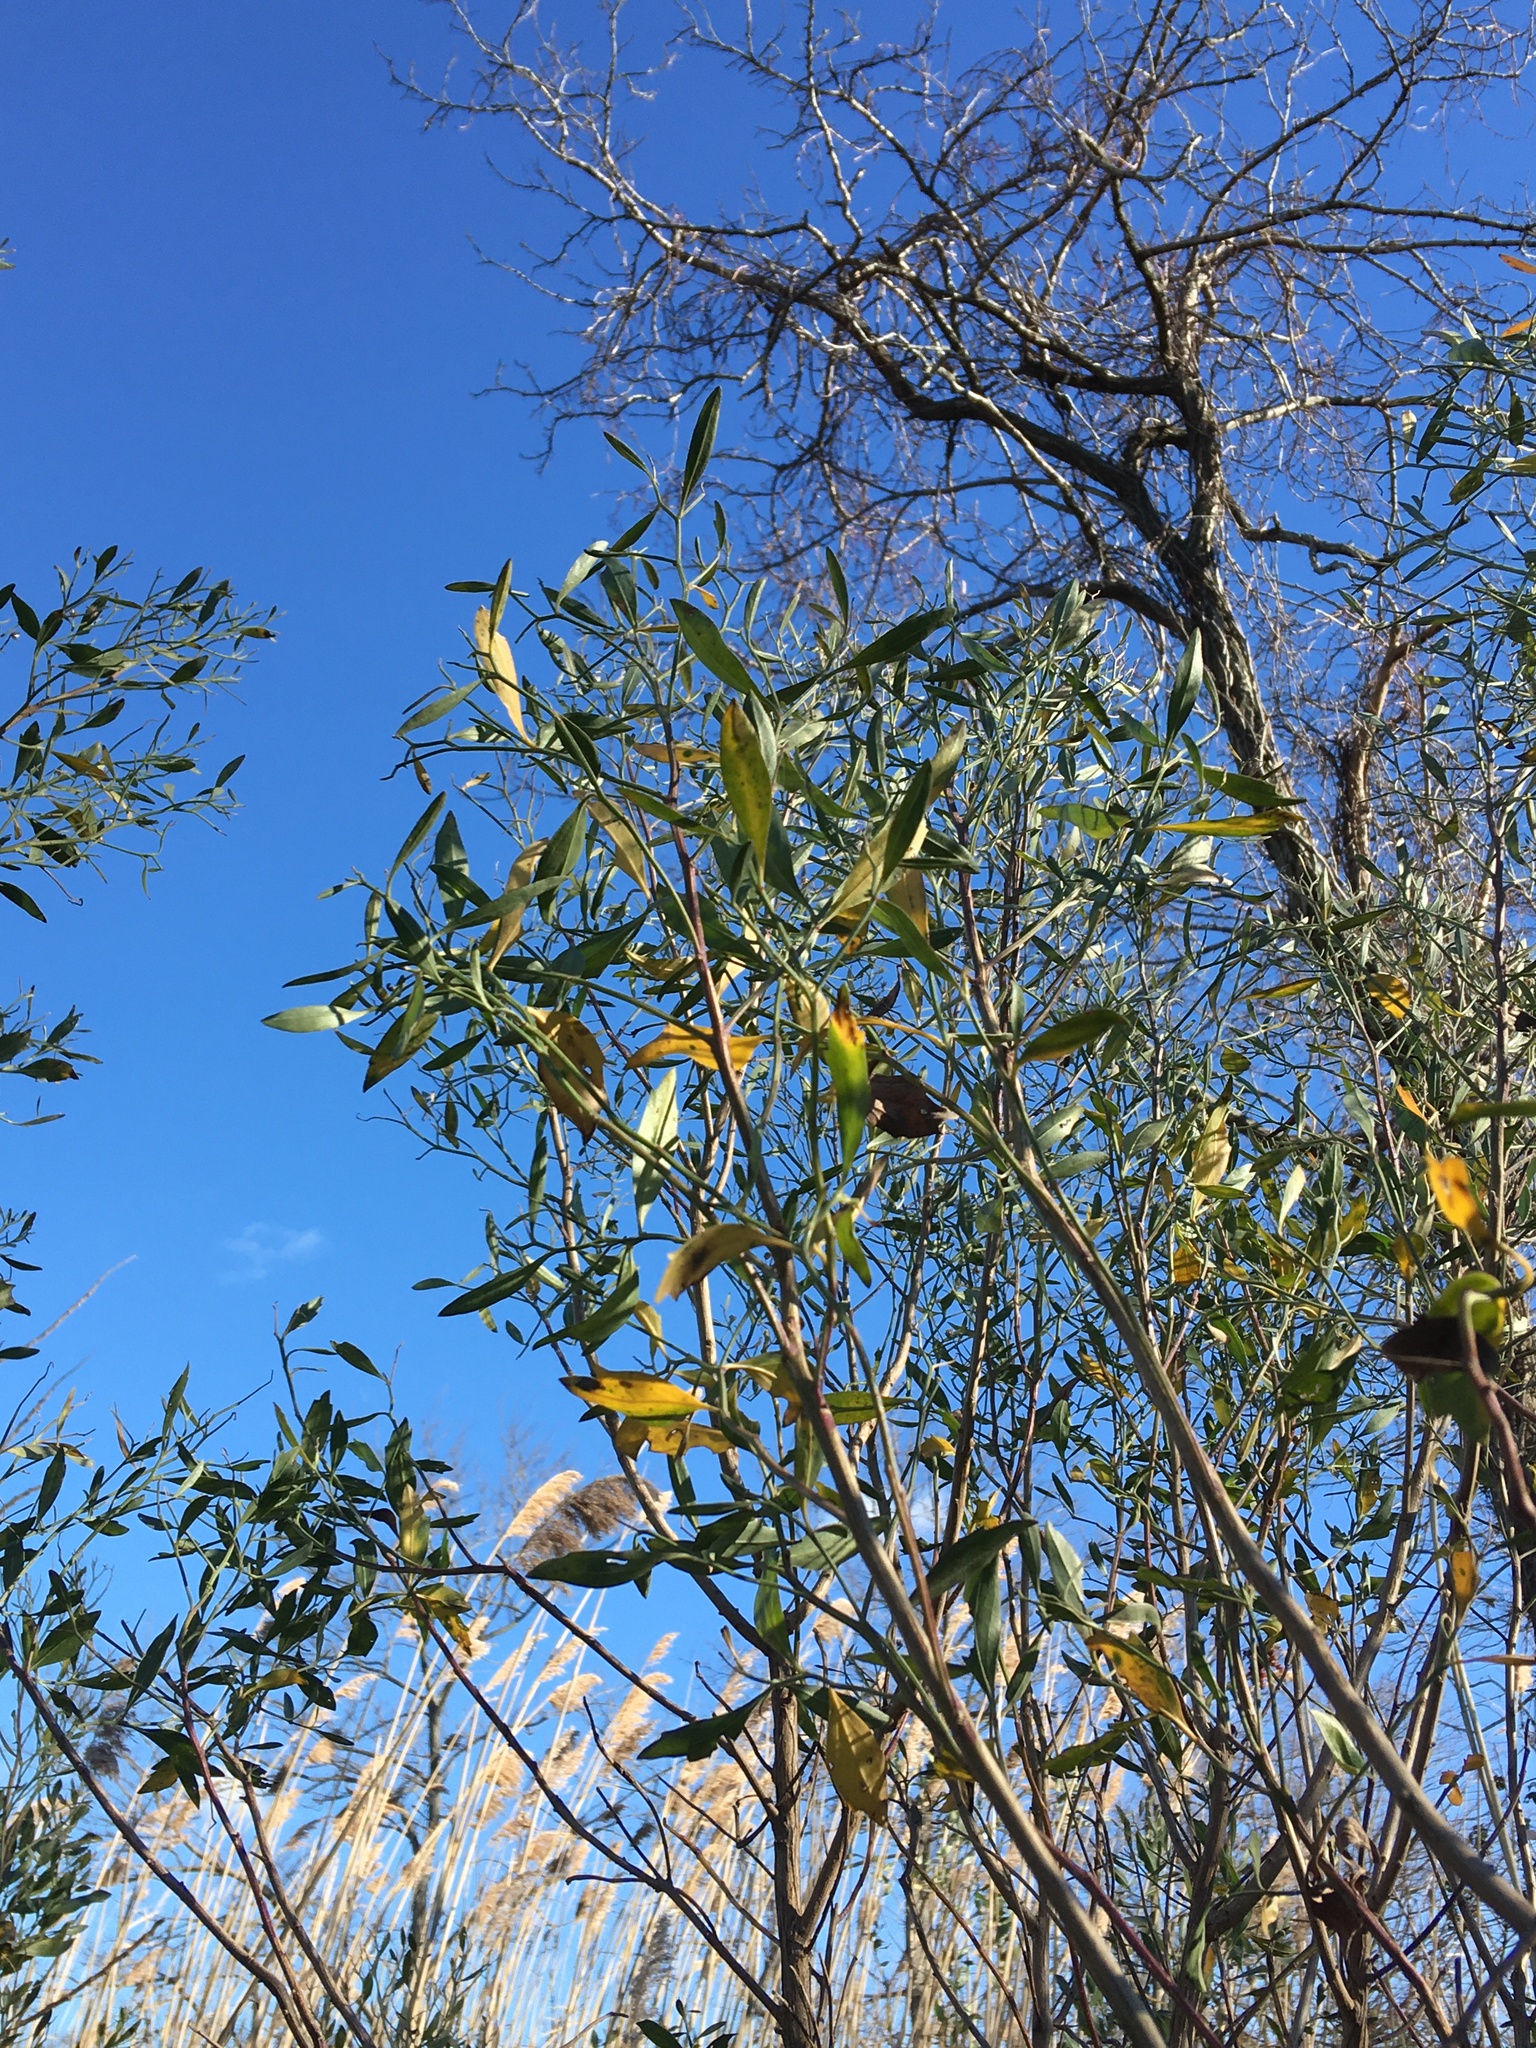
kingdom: Plantae
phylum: Tracheophyta
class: Magnoliopsida
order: Asterales
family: Asteraceae
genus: Baccharis
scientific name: Baccharis halimifolia
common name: Eastern baccharis
